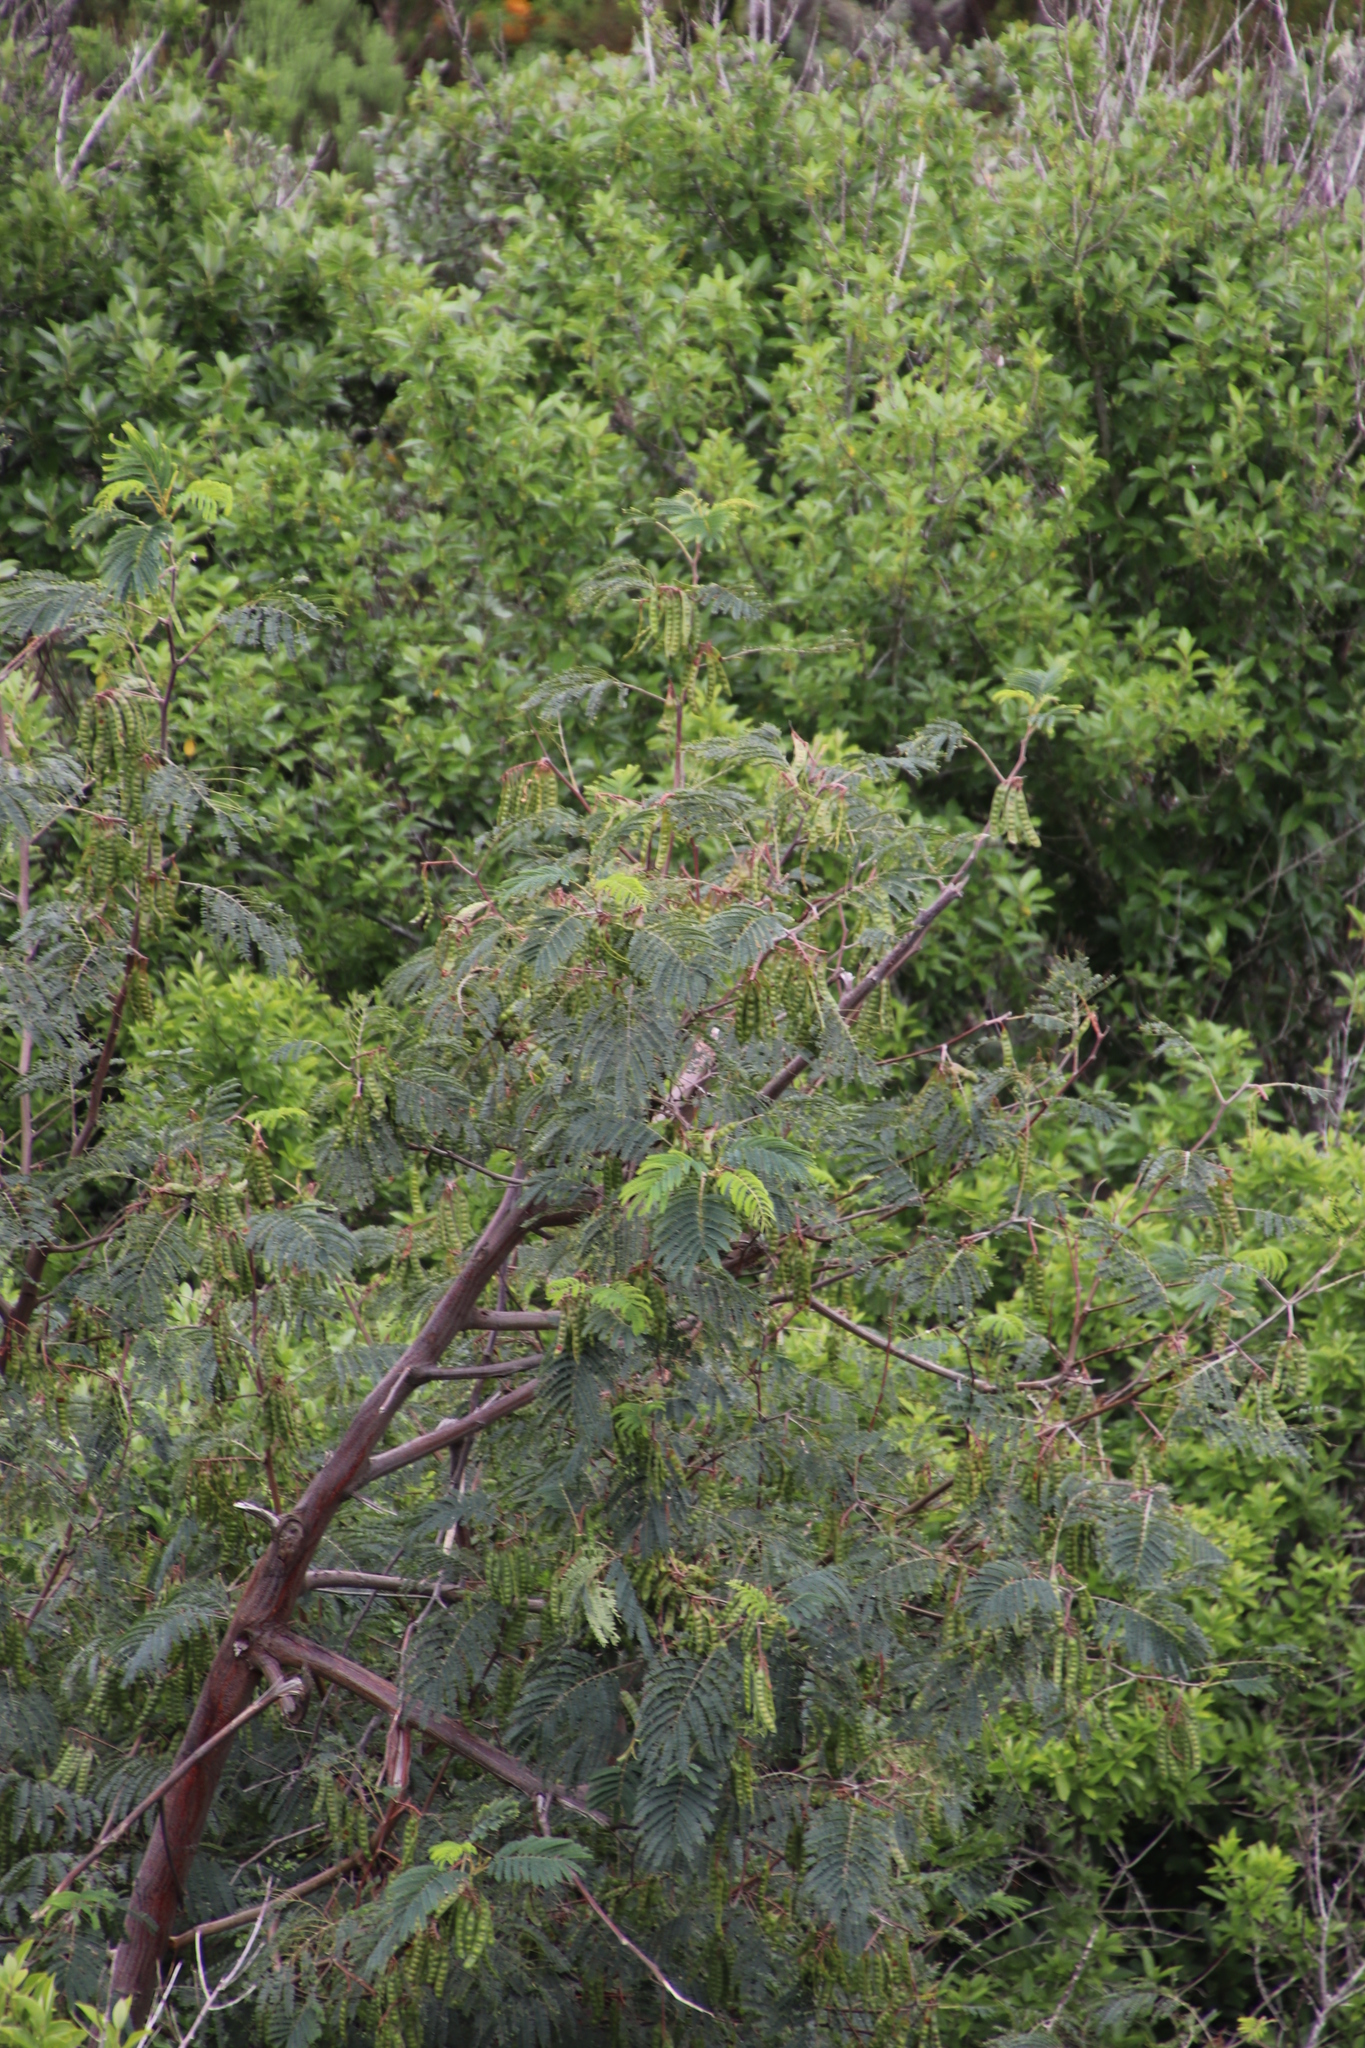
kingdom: Plantae
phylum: Tracheophyta
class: Magnoliopsida
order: Fabales
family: Fabaceae
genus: Paraserianthes
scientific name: Paraserianthes lophantha
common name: Plume albizia
